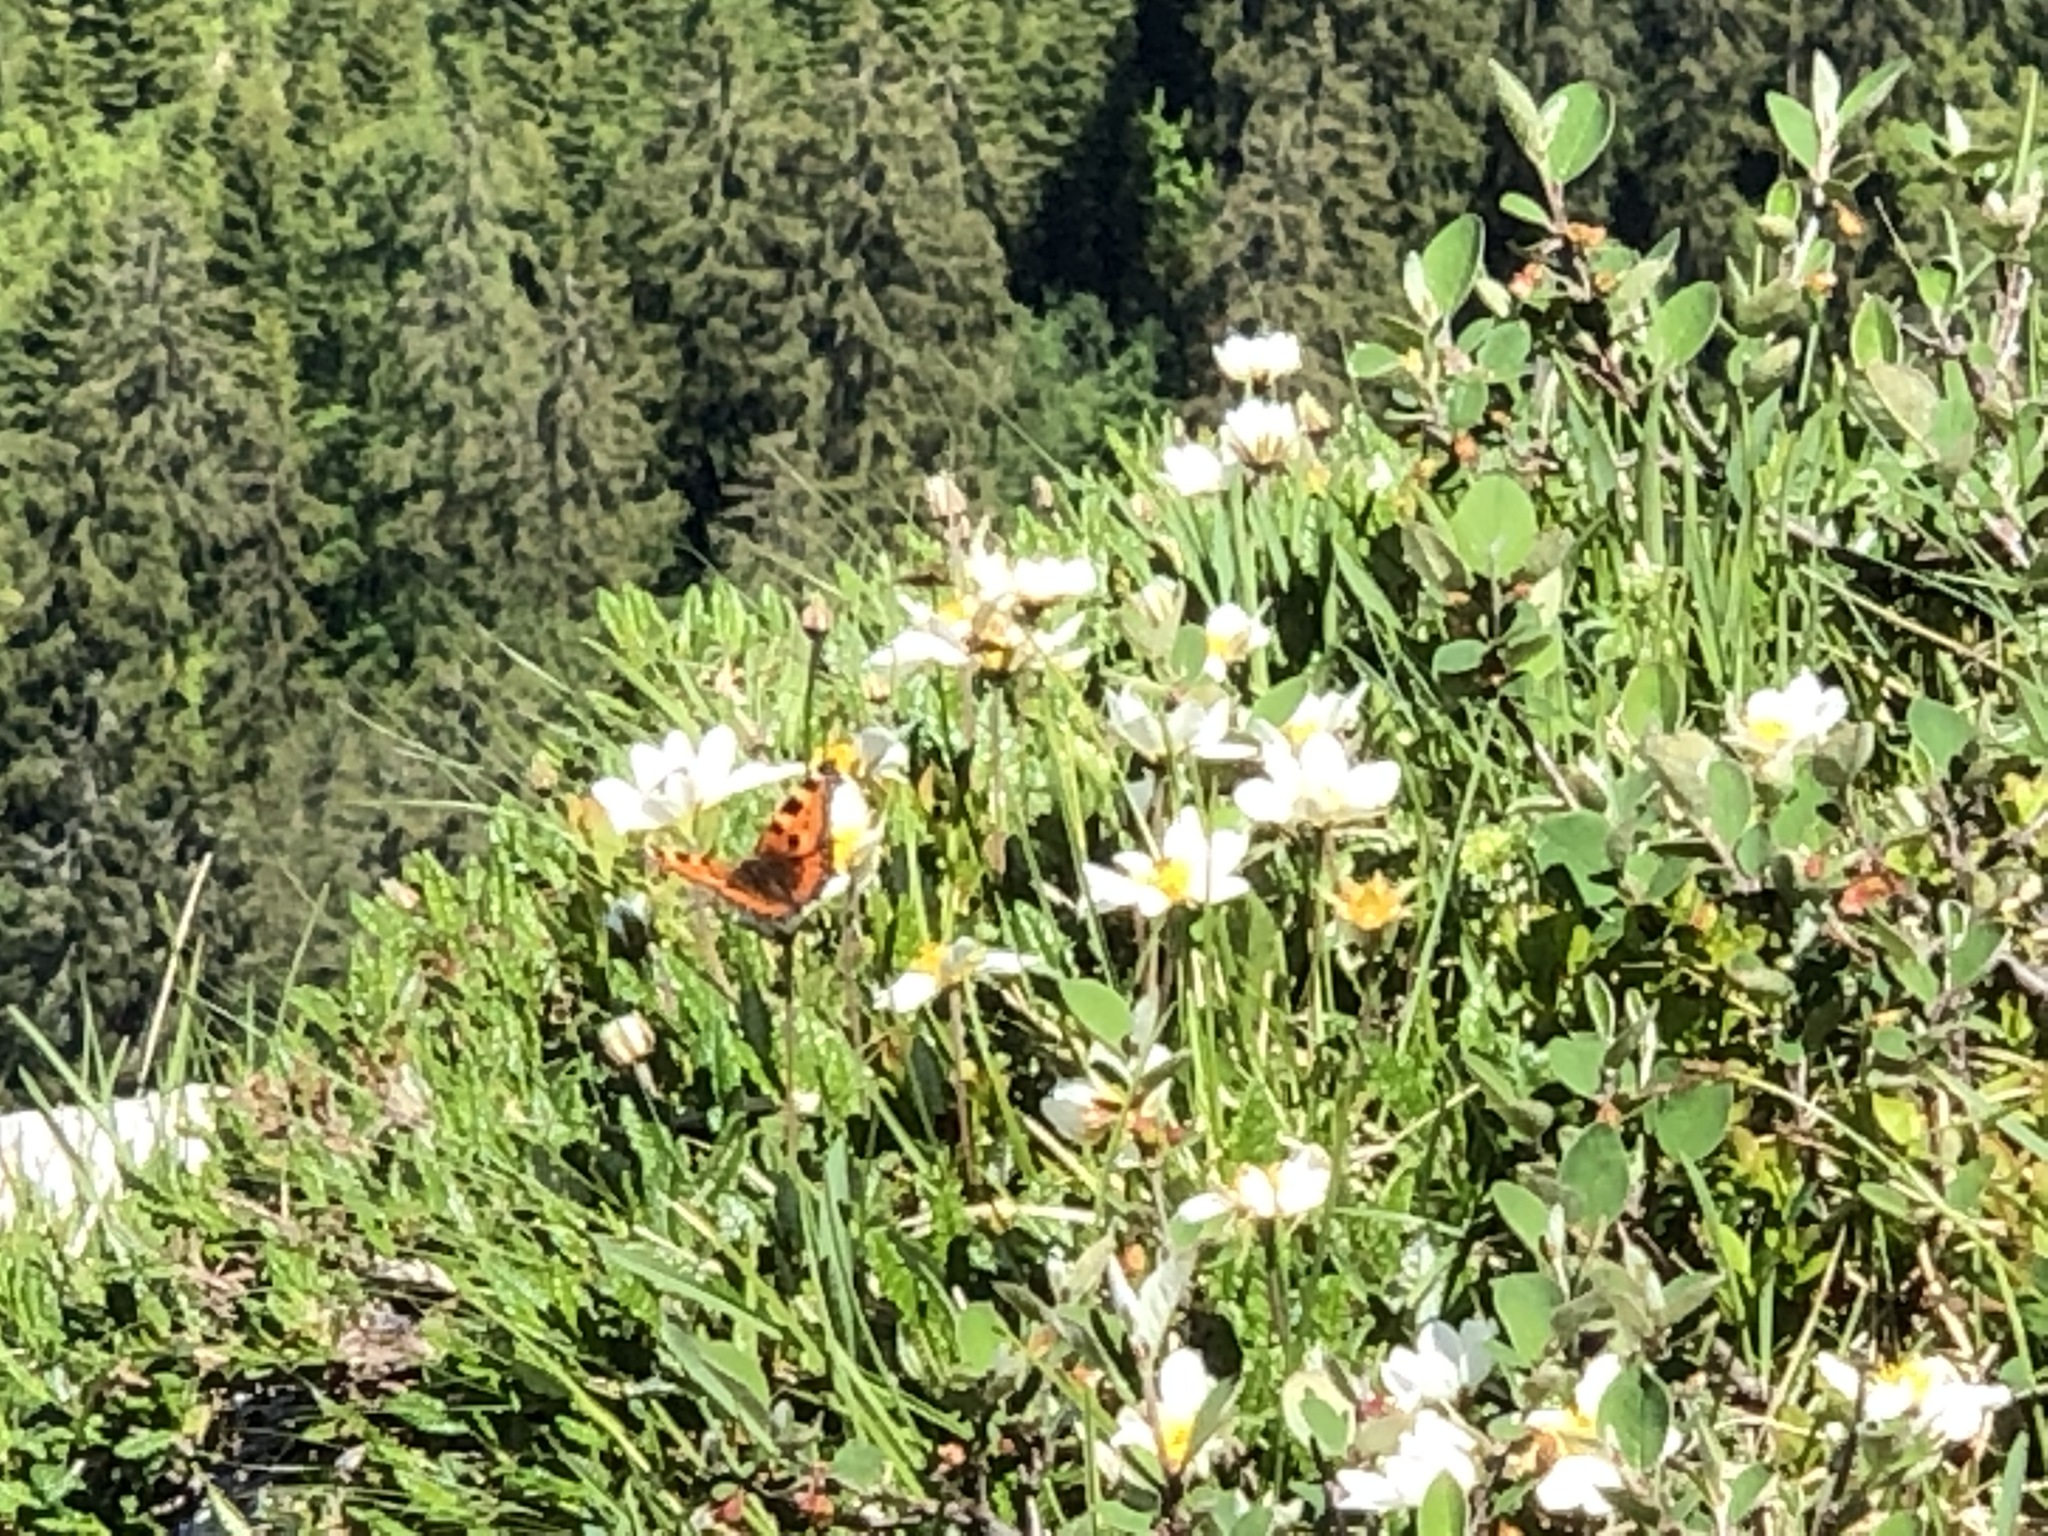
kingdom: Animalia
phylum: Arthropoda
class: Insecta
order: Lepidoptera
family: Nymphalidae
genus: Aglais
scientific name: Aglais urticae
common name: Small tortoiseshell
